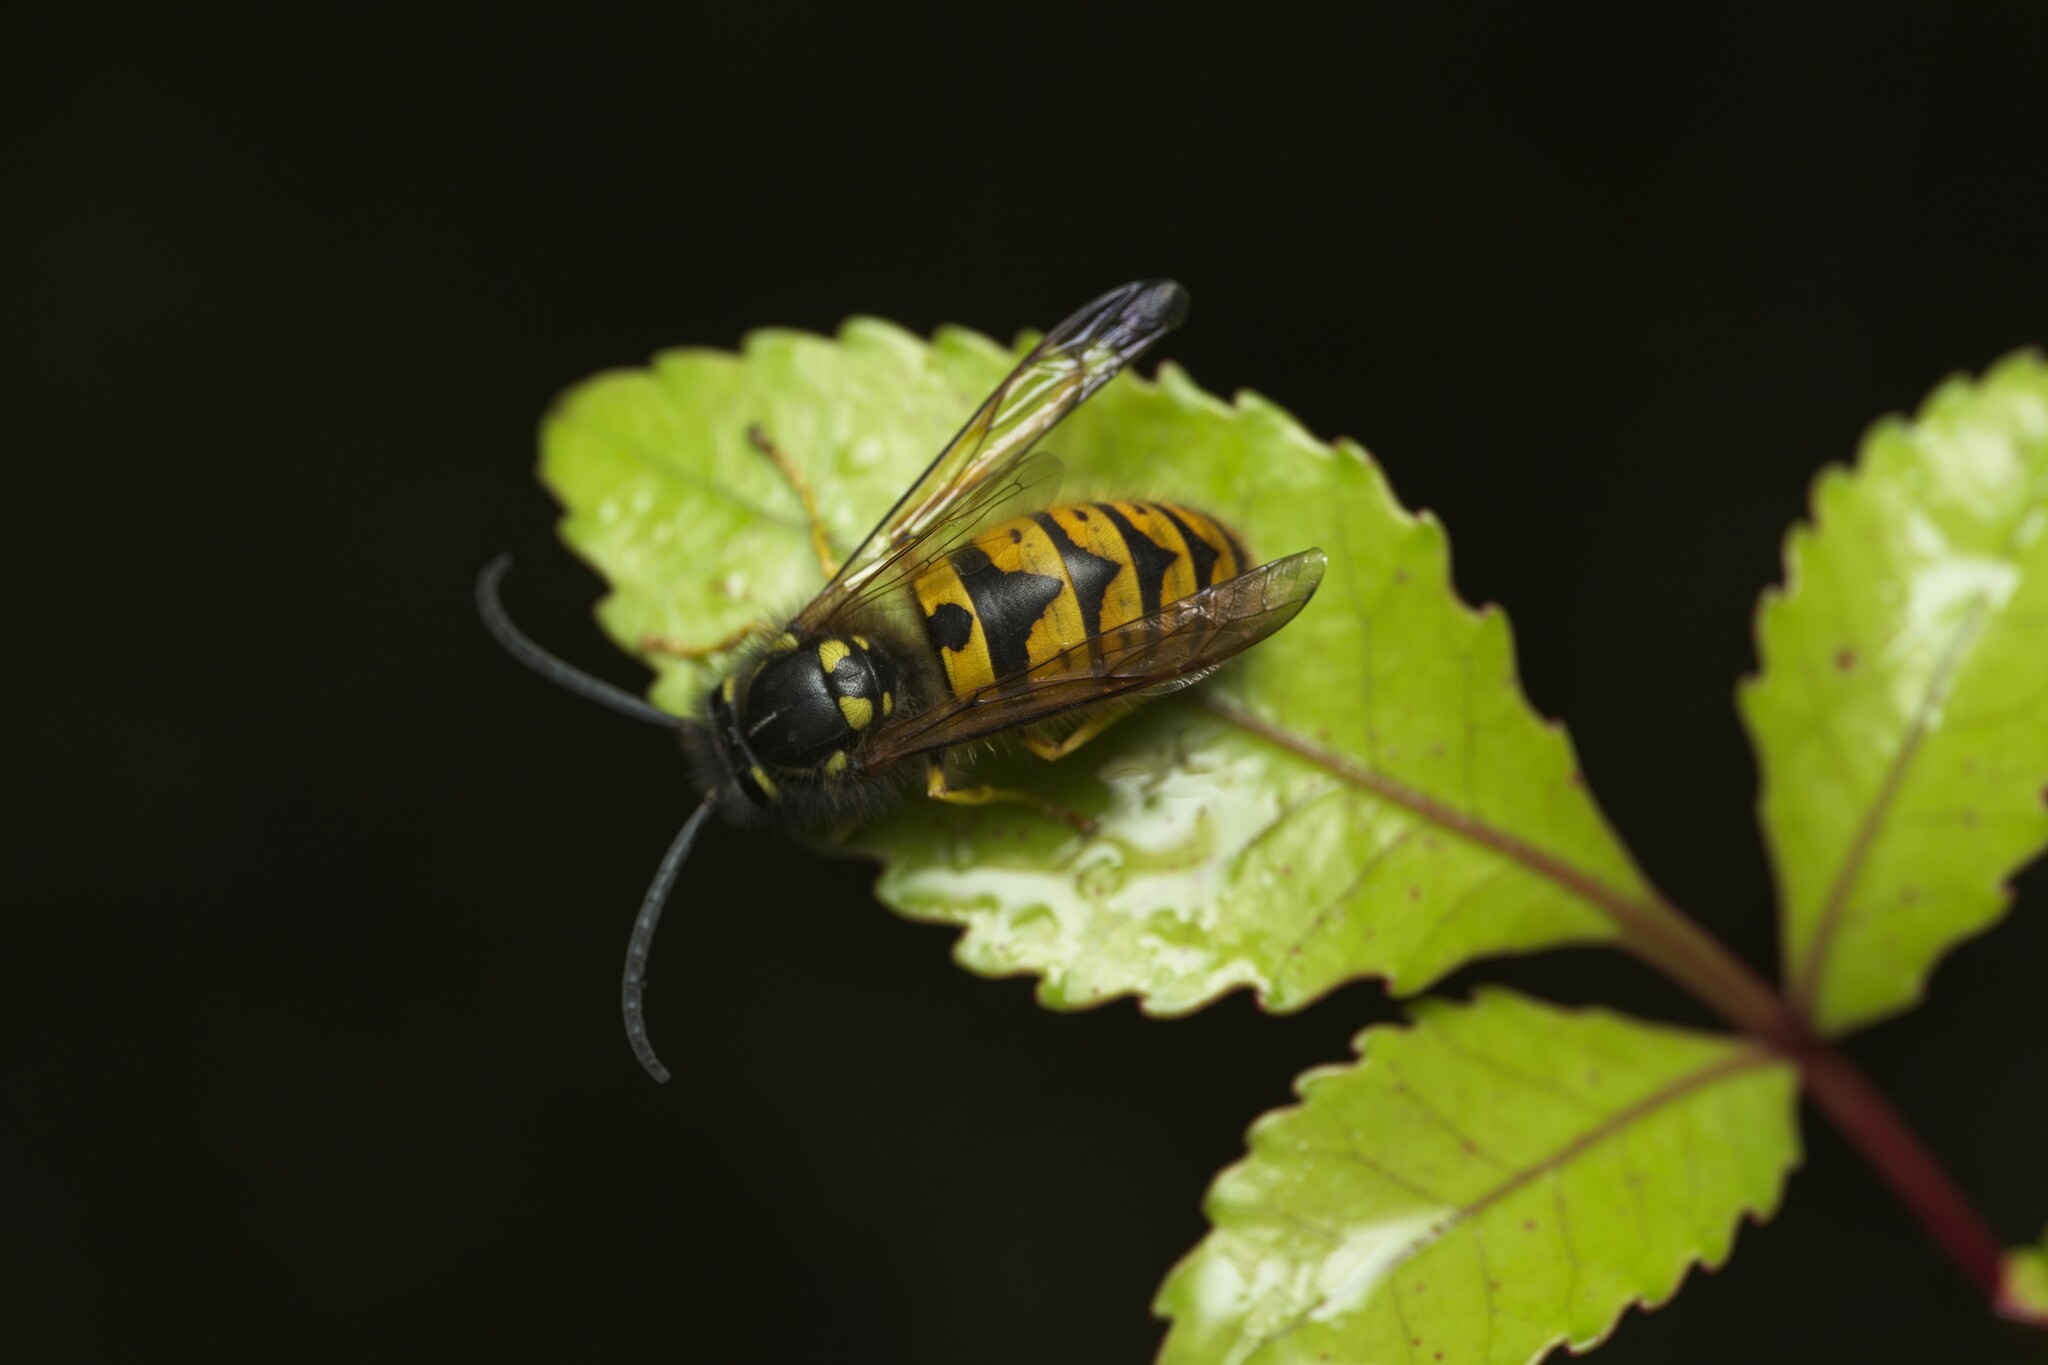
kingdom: Animalia
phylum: Arthropoda
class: Insecta
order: Hymenoptera
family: Vespidae
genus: Vespula
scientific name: Vespula germanica
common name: German wasp
